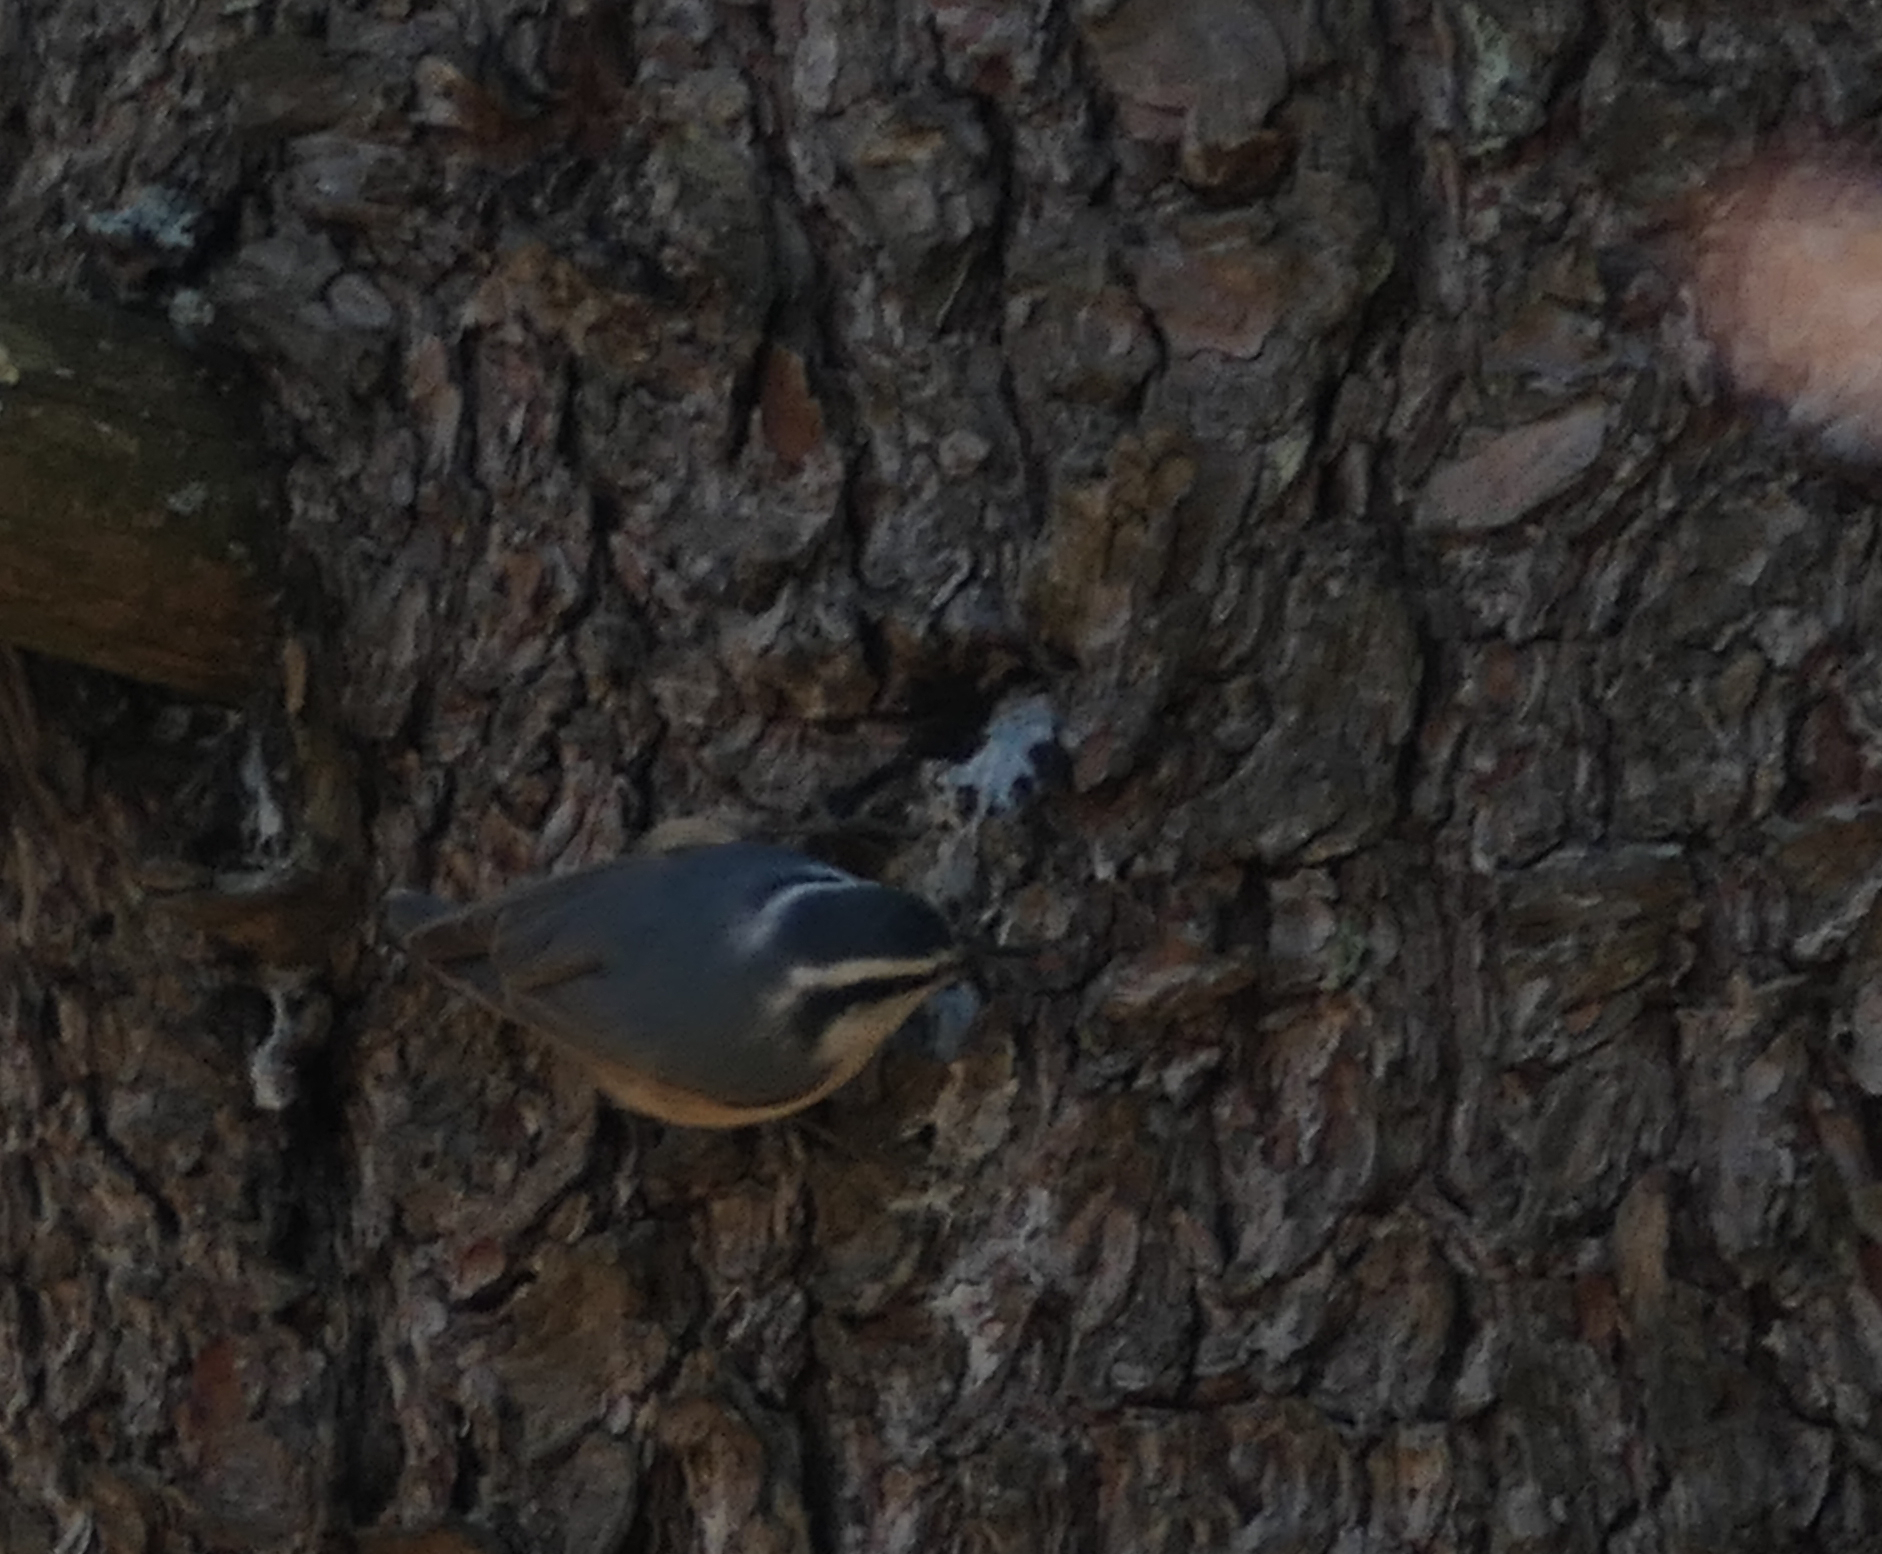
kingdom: Animalia
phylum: Chordata
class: Aves
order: Passeriformes
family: Sittidae
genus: Sitta
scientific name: Sitta canadensis
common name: Red-breasted nuthatch
